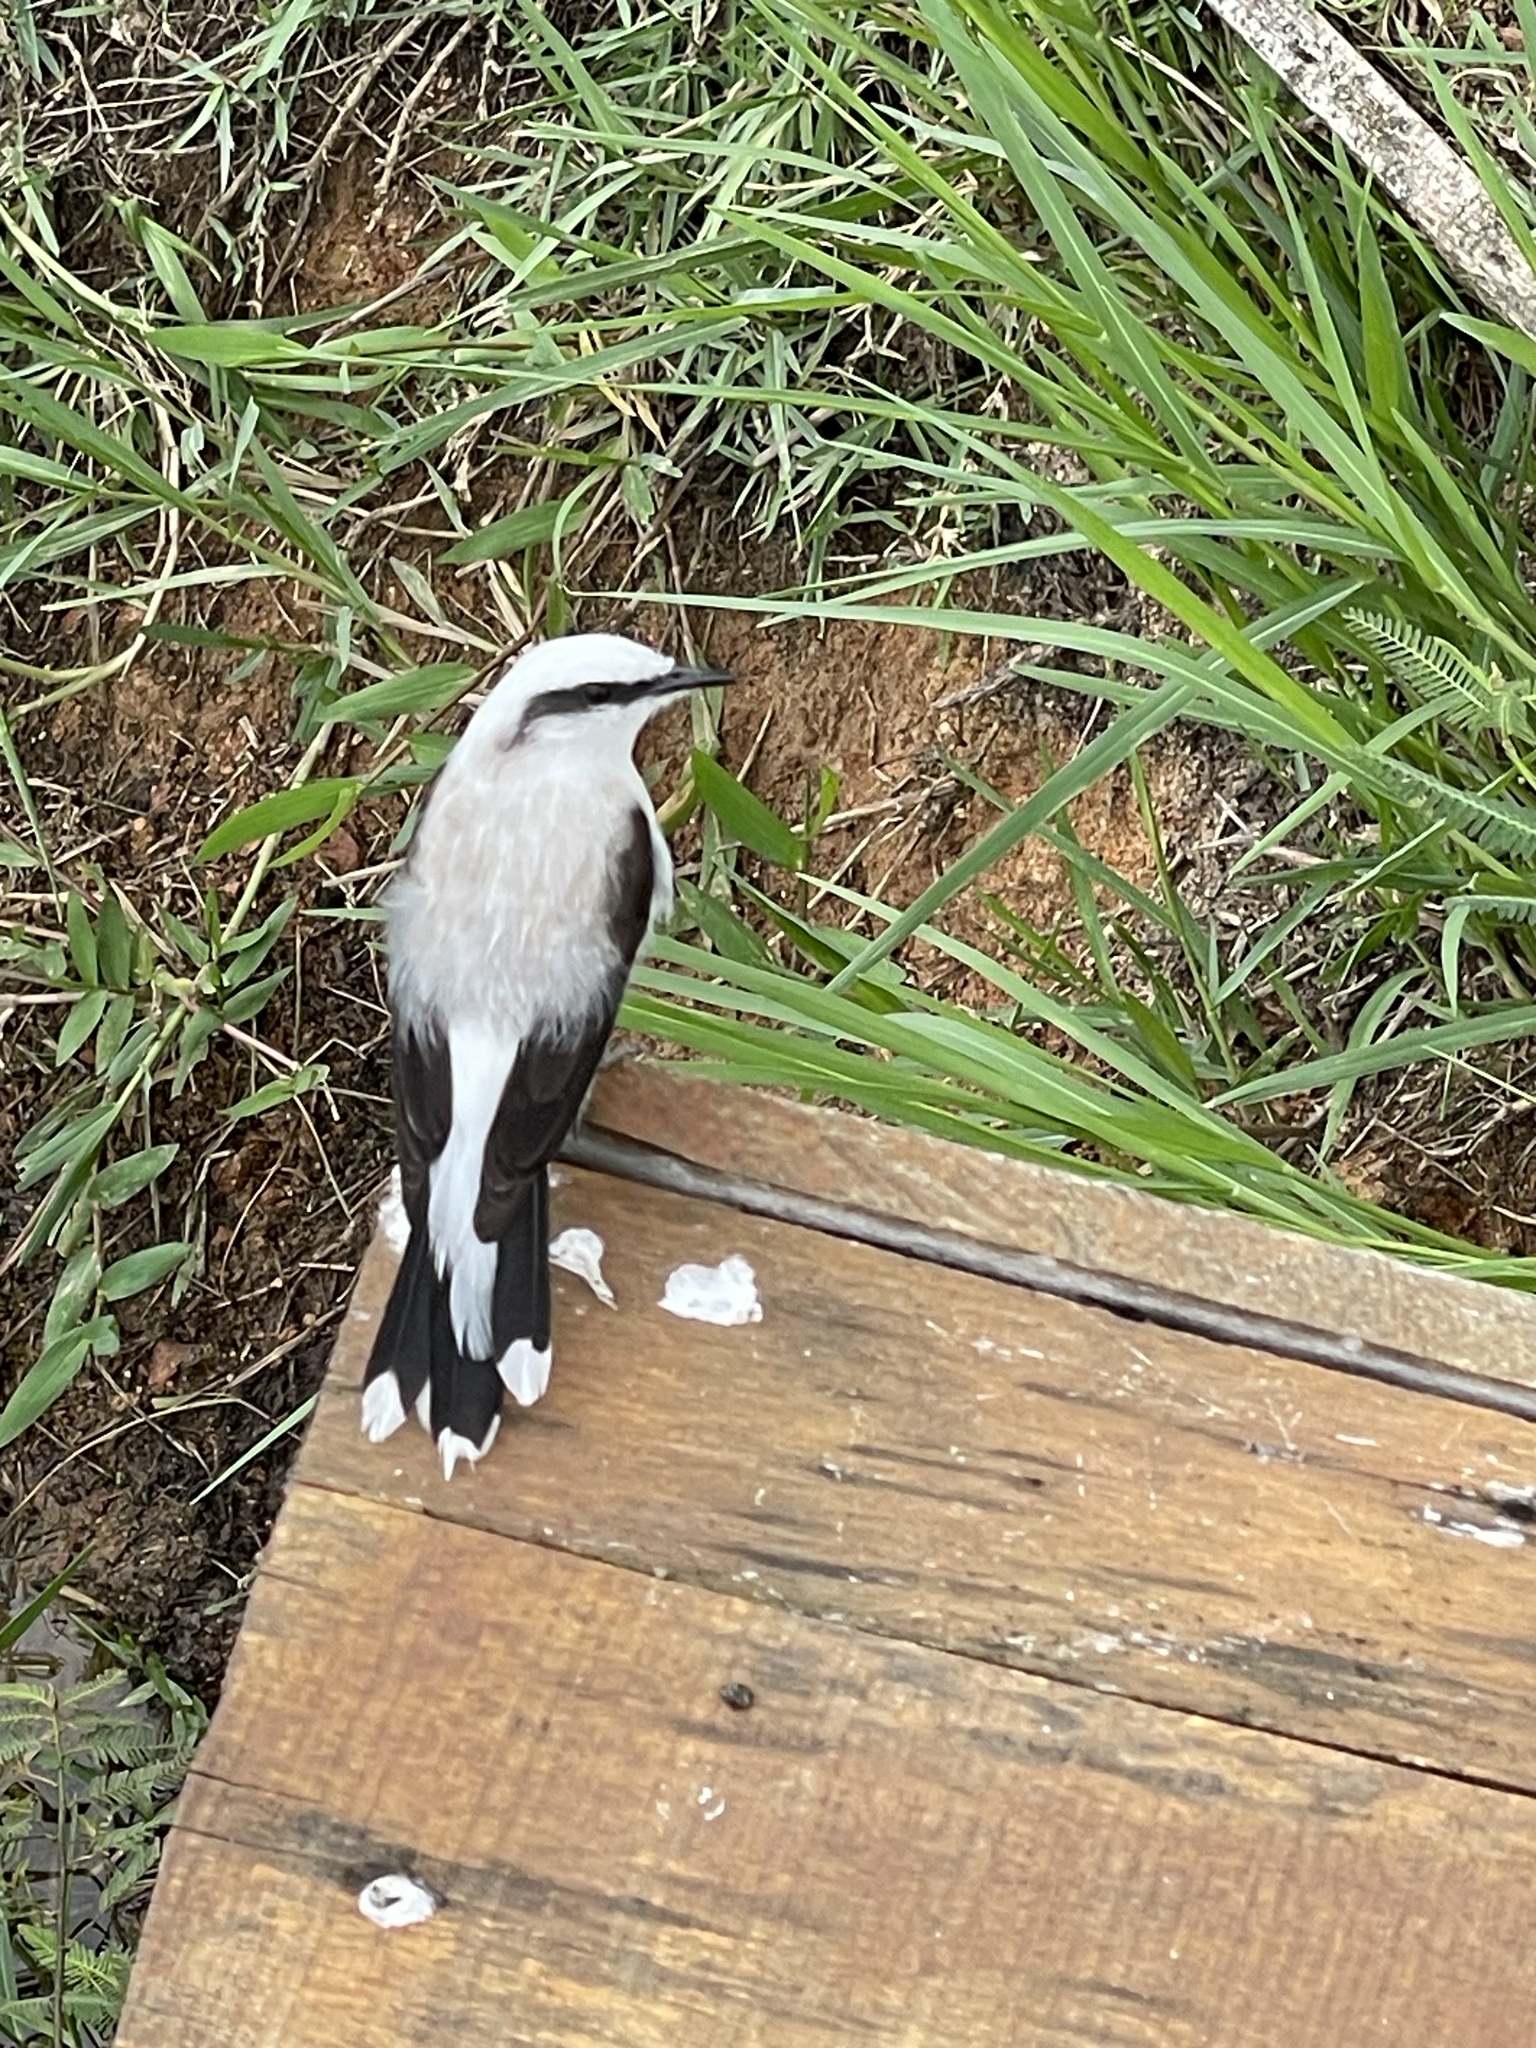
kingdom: Animalia
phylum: Chordata
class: Aves
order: Passeriformes
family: Tyrannidae
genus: Fluvicola
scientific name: Fluvicola nengeta
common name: Masked water tyrant
